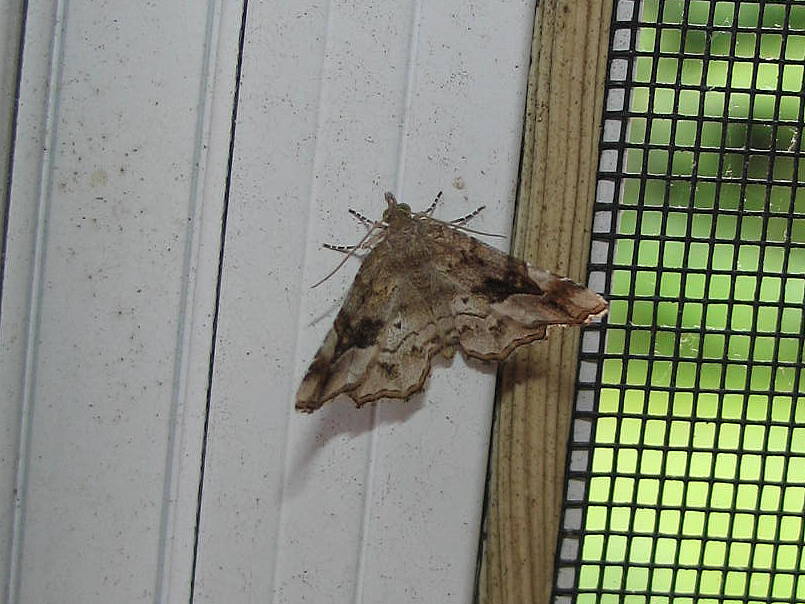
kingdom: Animalia
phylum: Arthropoda
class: Insecta
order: Lepidoptera
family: Erebidae
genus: Pangrapta
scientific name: Pangrapta decoralis
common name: Decorated owlet
